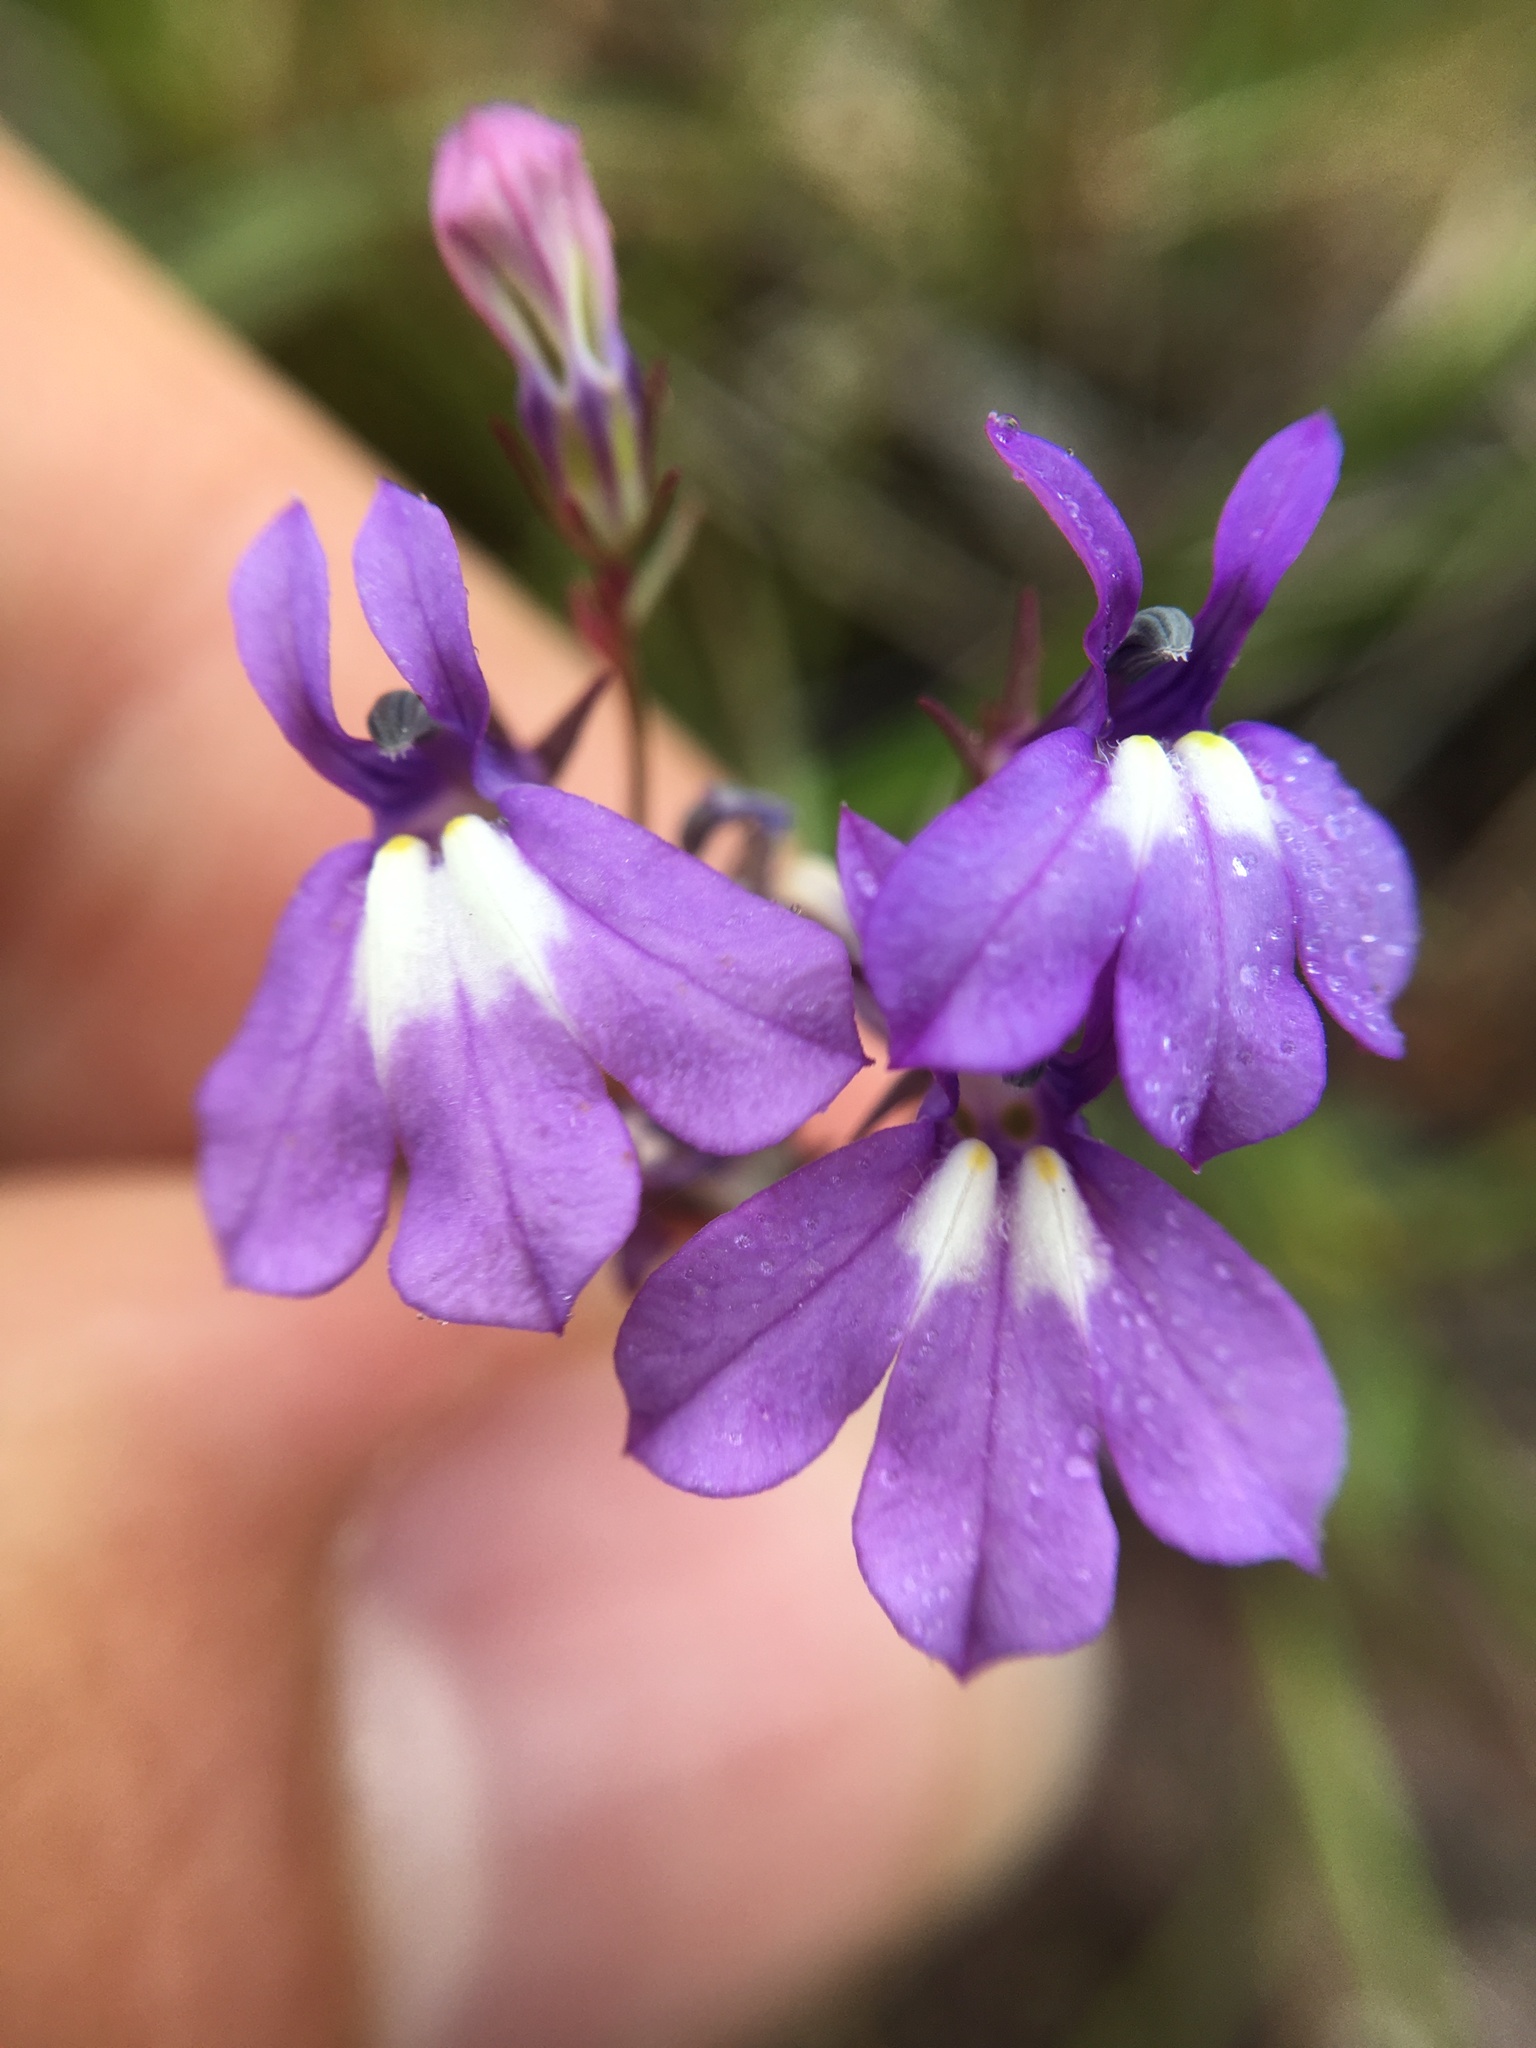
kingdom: Plantae
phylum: Tracheophyta
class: Magnoliopsida
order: Asterales
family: Campanulaceae
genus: Lobelia
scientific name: Lobelia kalmii
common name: Kalm's lobelia
